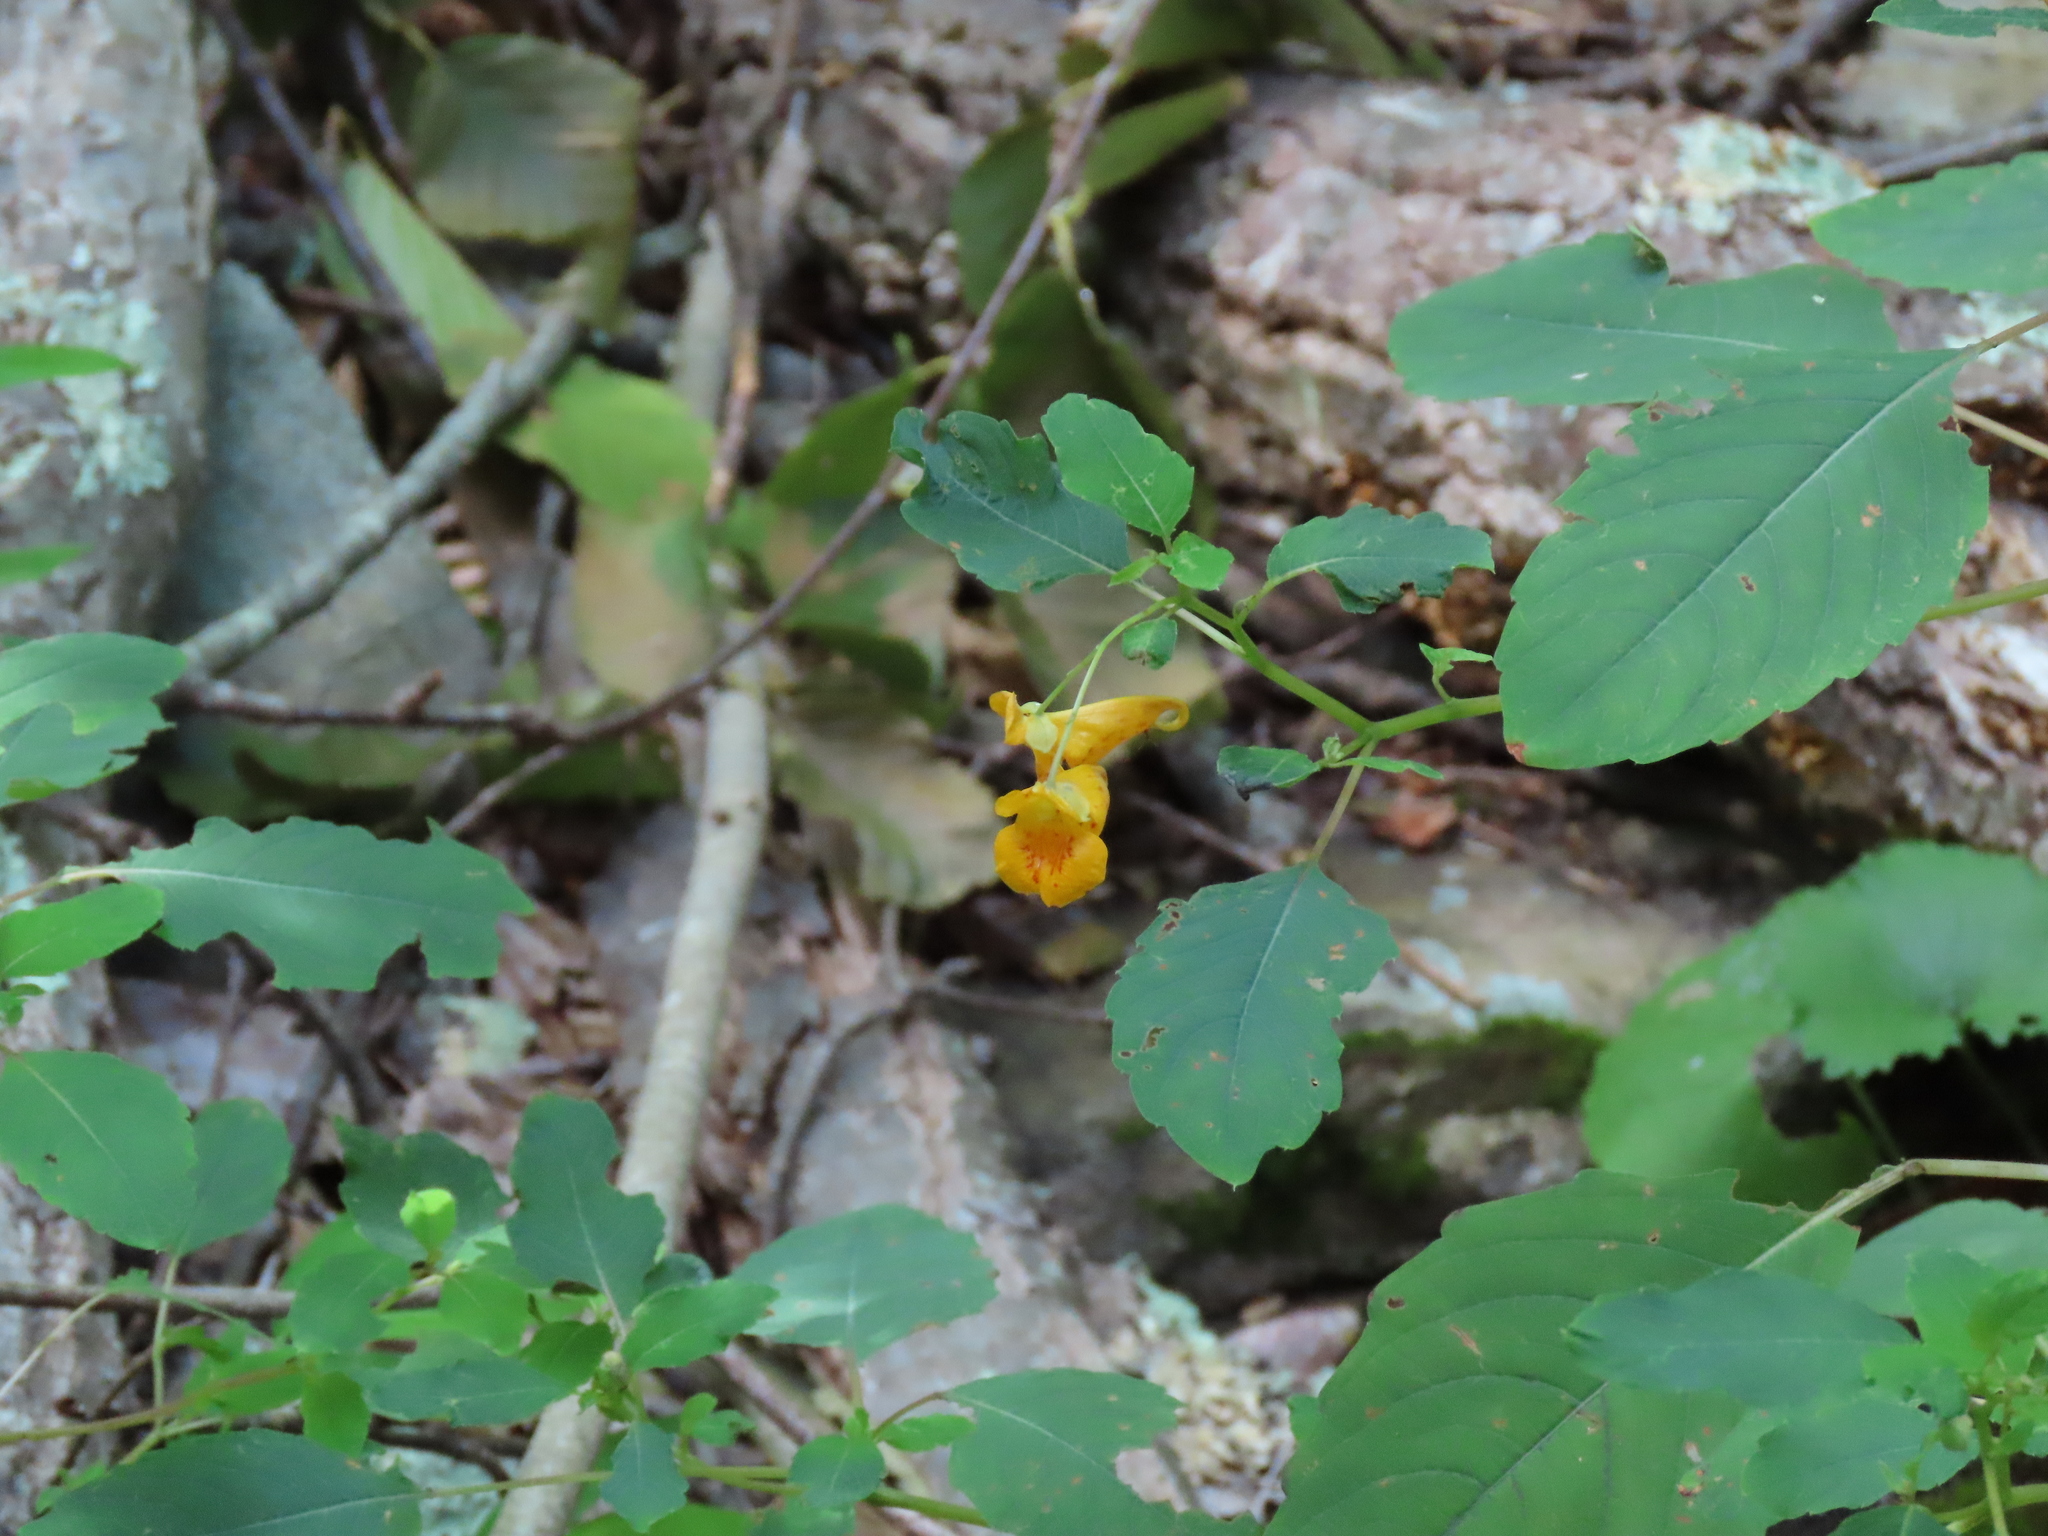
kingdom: Plantae
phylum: Tracheophyta
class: Magnoliopsida
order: Ericales
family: Balsaminaceae
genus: Impatiens
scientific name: Impatiens capensis
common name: Orange balsam
